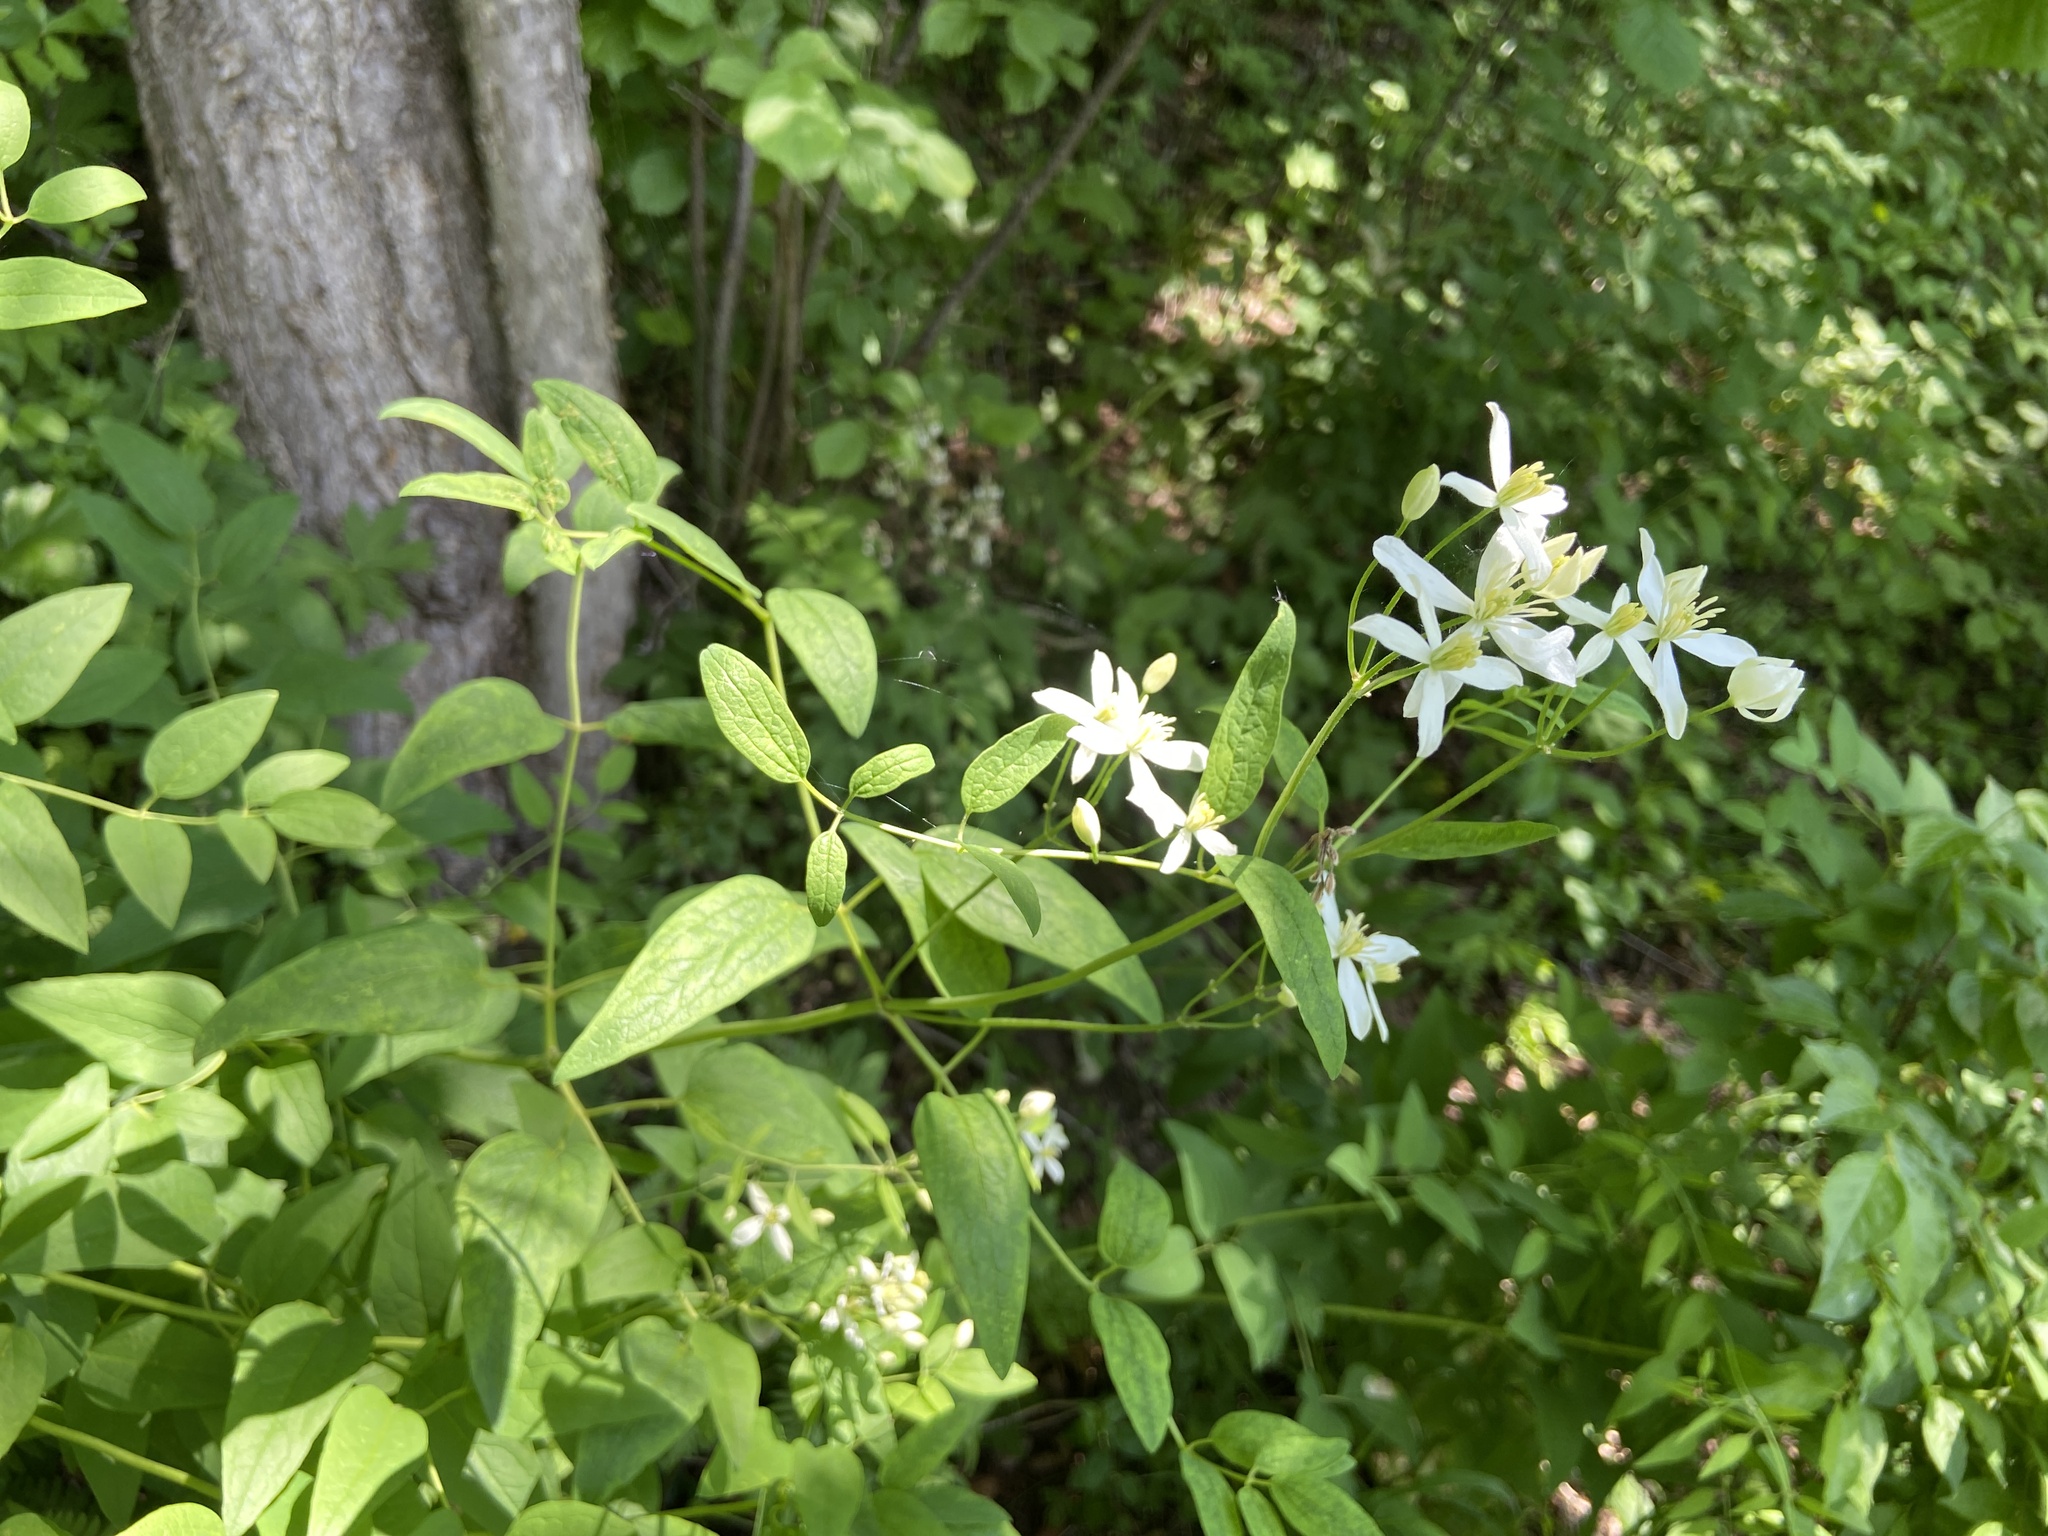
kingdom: Plantae
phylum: Tracheophyta
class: Magnoliopsida
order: Ranunculales
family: Ranunculaceae
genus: Clematis
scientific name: Clematis recta
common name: Ground clematis
